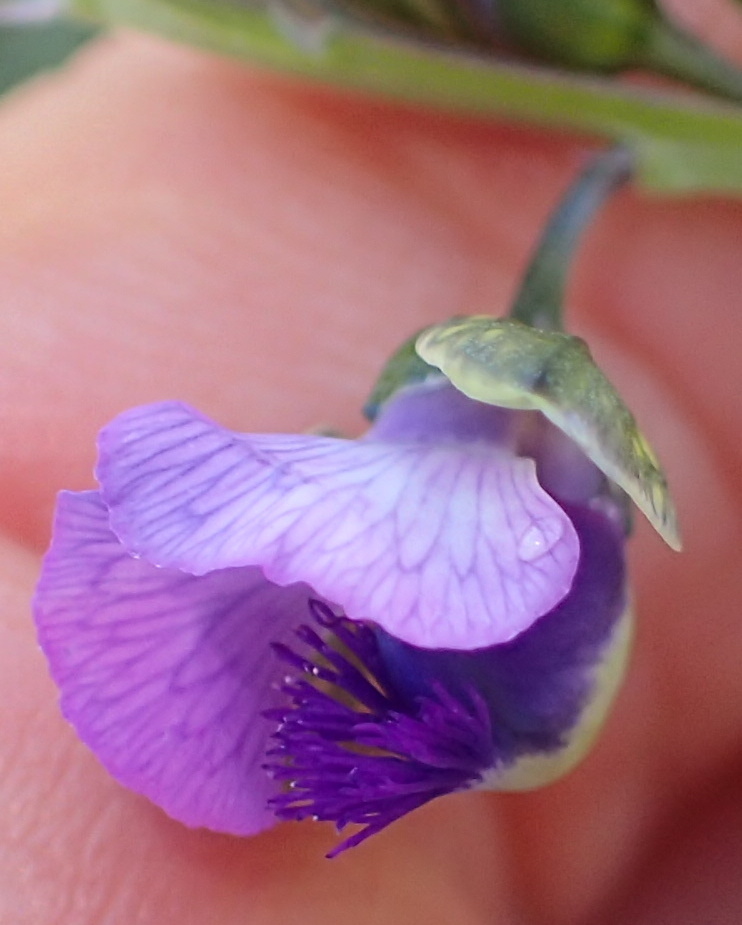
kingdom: Plantae
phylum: Tracheophyta
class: Magnoliopsida
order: Fabales
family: Polygalaceae
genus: Polygala
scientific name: Polygala gracilenta
